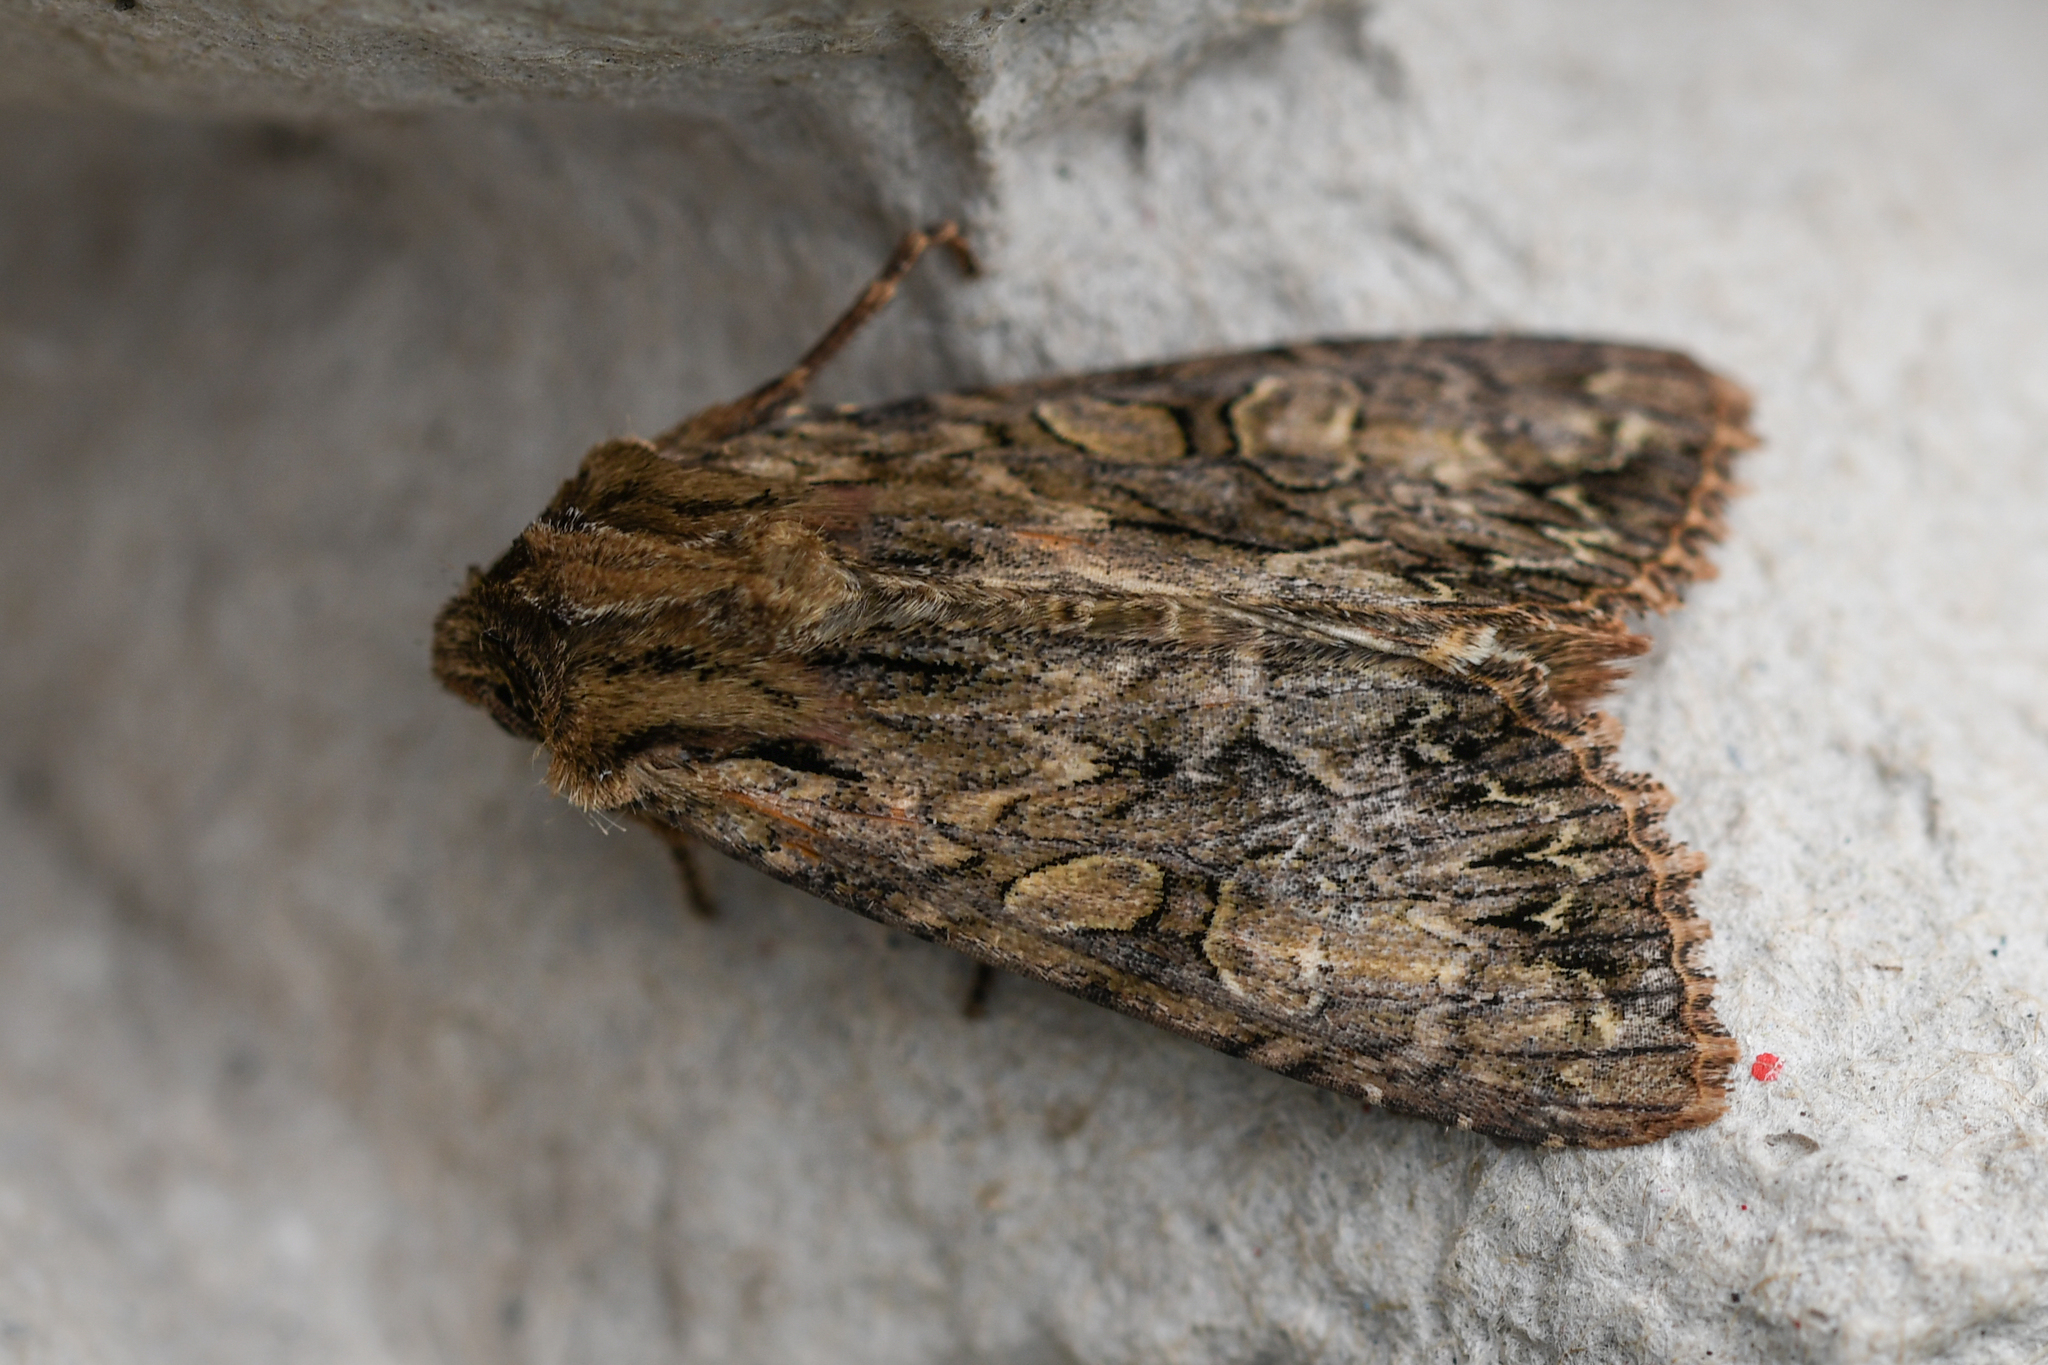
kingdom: Animalia
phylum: Arthropoda
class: Insecta
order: Lepidoptera
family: Noctuidae
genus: Apamea
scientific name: Apamea monoglypha
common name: Dark arches
